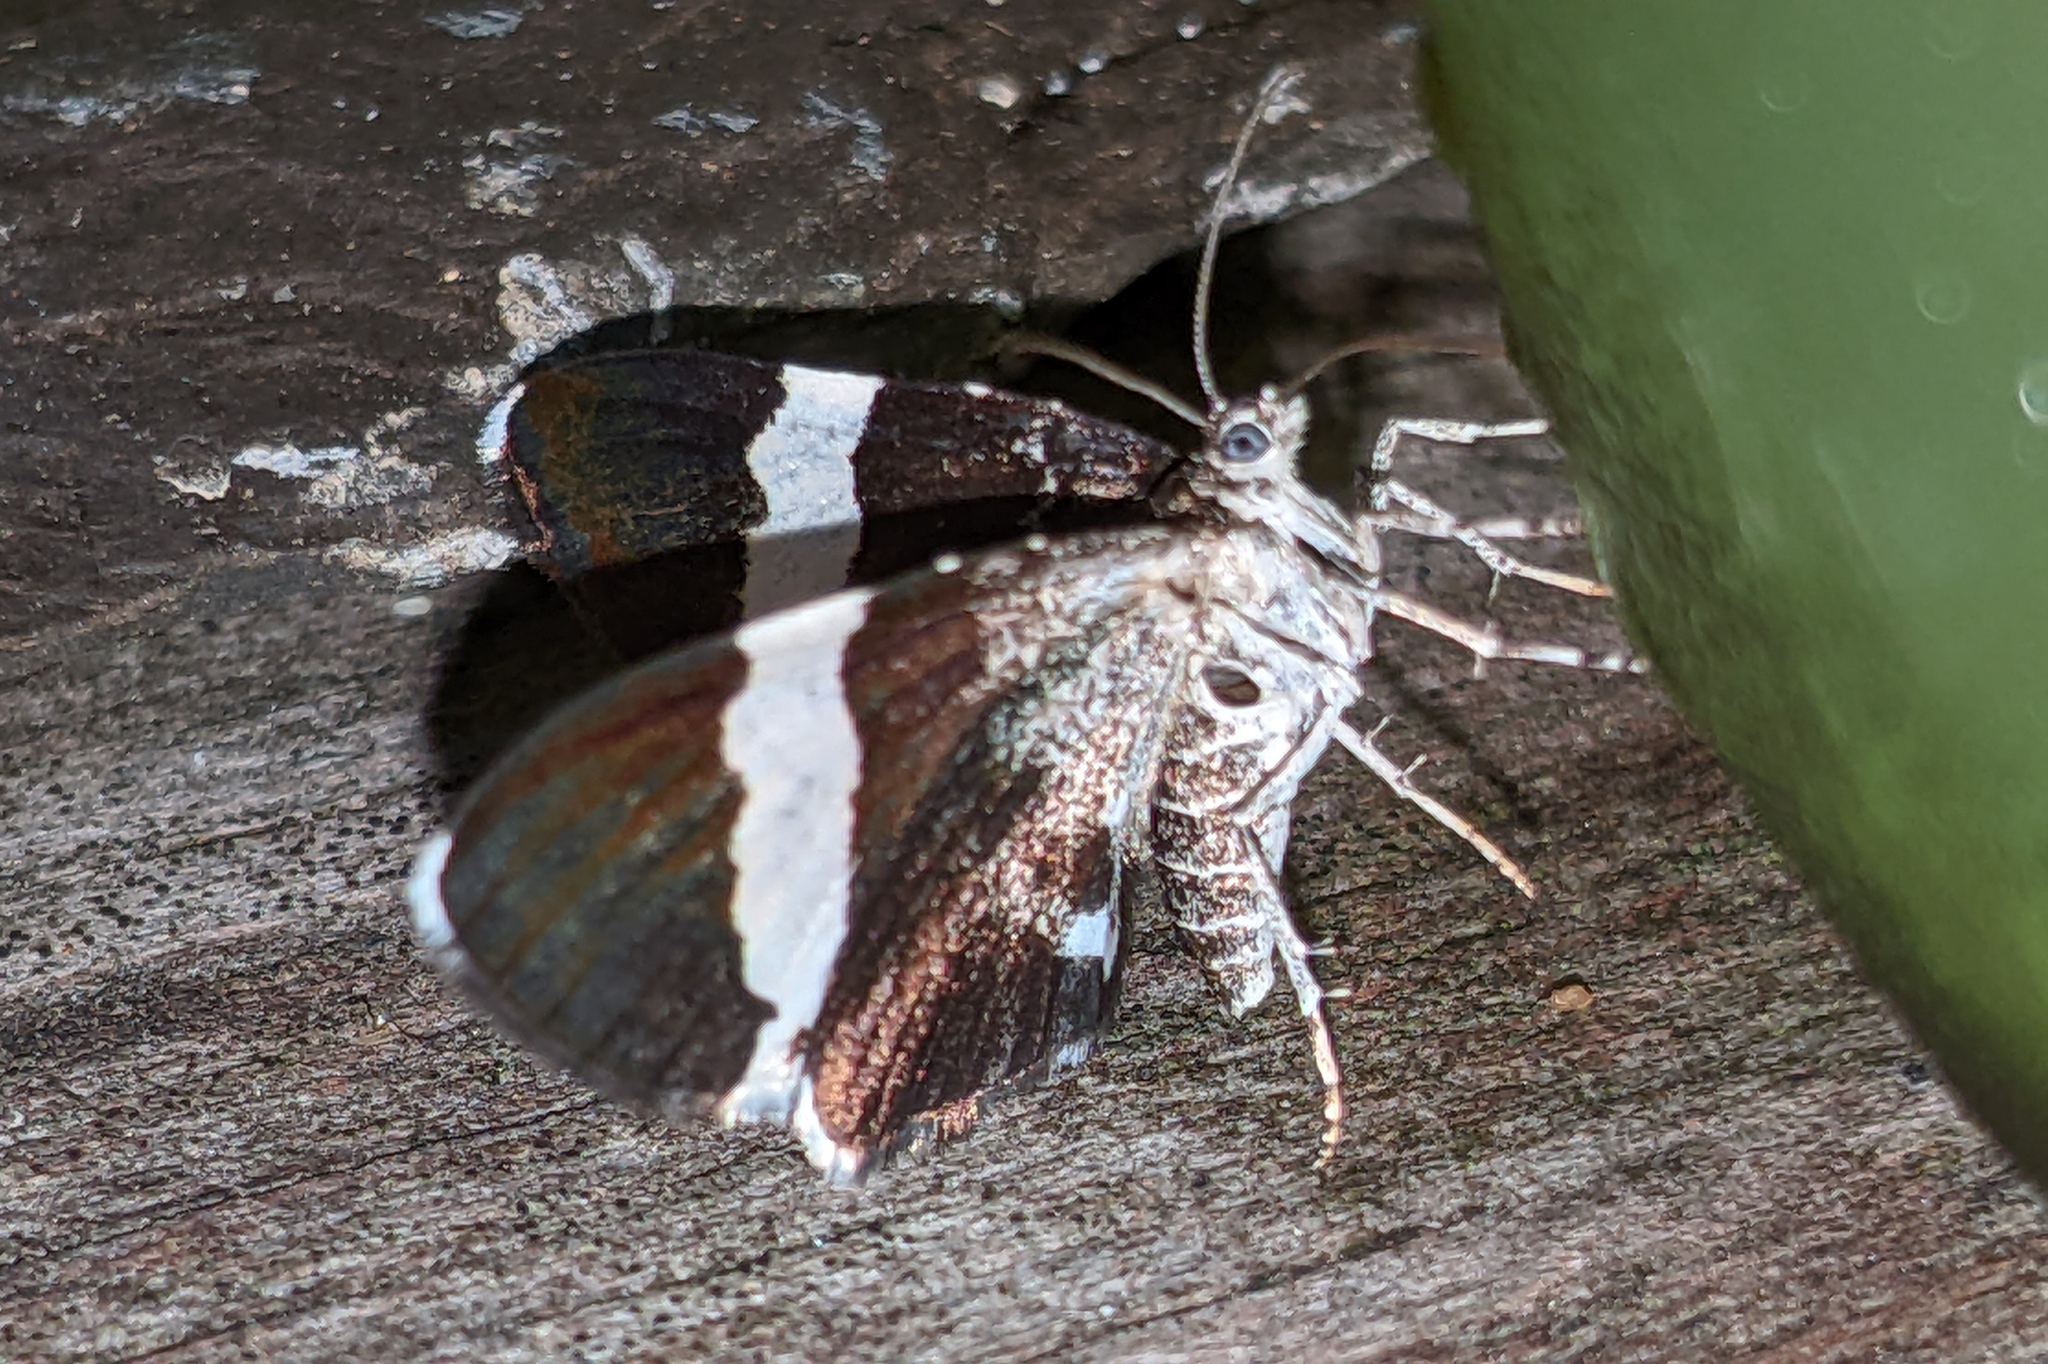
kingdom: Animalia
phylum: Arthropoda
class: Insecta
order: Lepidoptera
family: Geometridae
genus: Trichodezia
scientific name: Trichodezia albovittata
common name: White striped black
